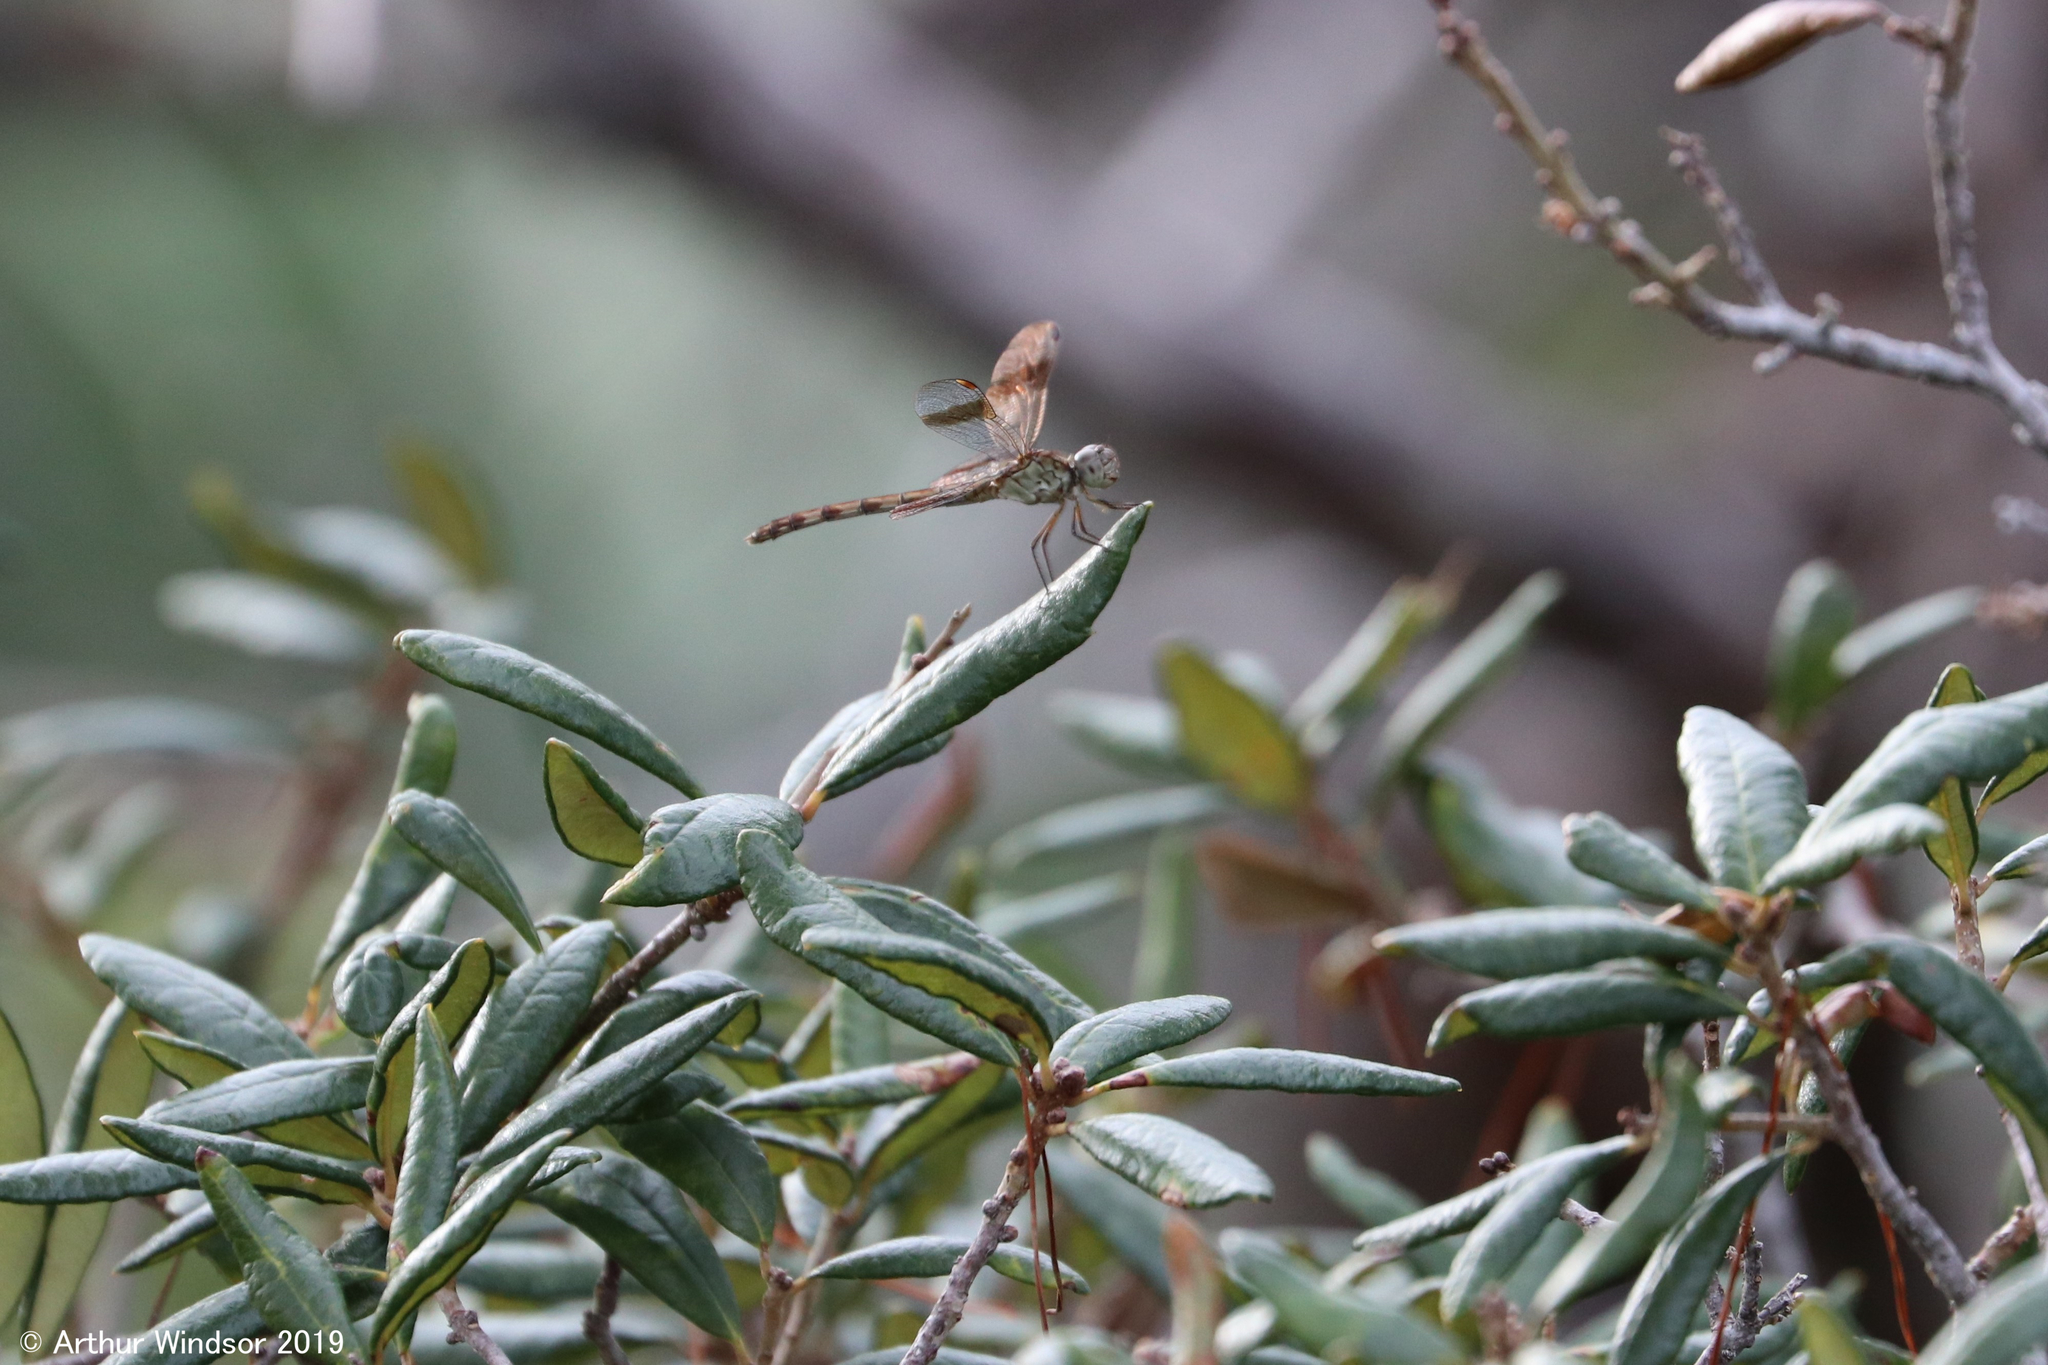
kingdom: Animalia
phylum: Arthropoda
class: Insecta
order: Odonata
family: Libellulidae
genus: Erythrodiplax
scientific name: Erythrodiplax umbrata
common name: Band-winged dragonlet
